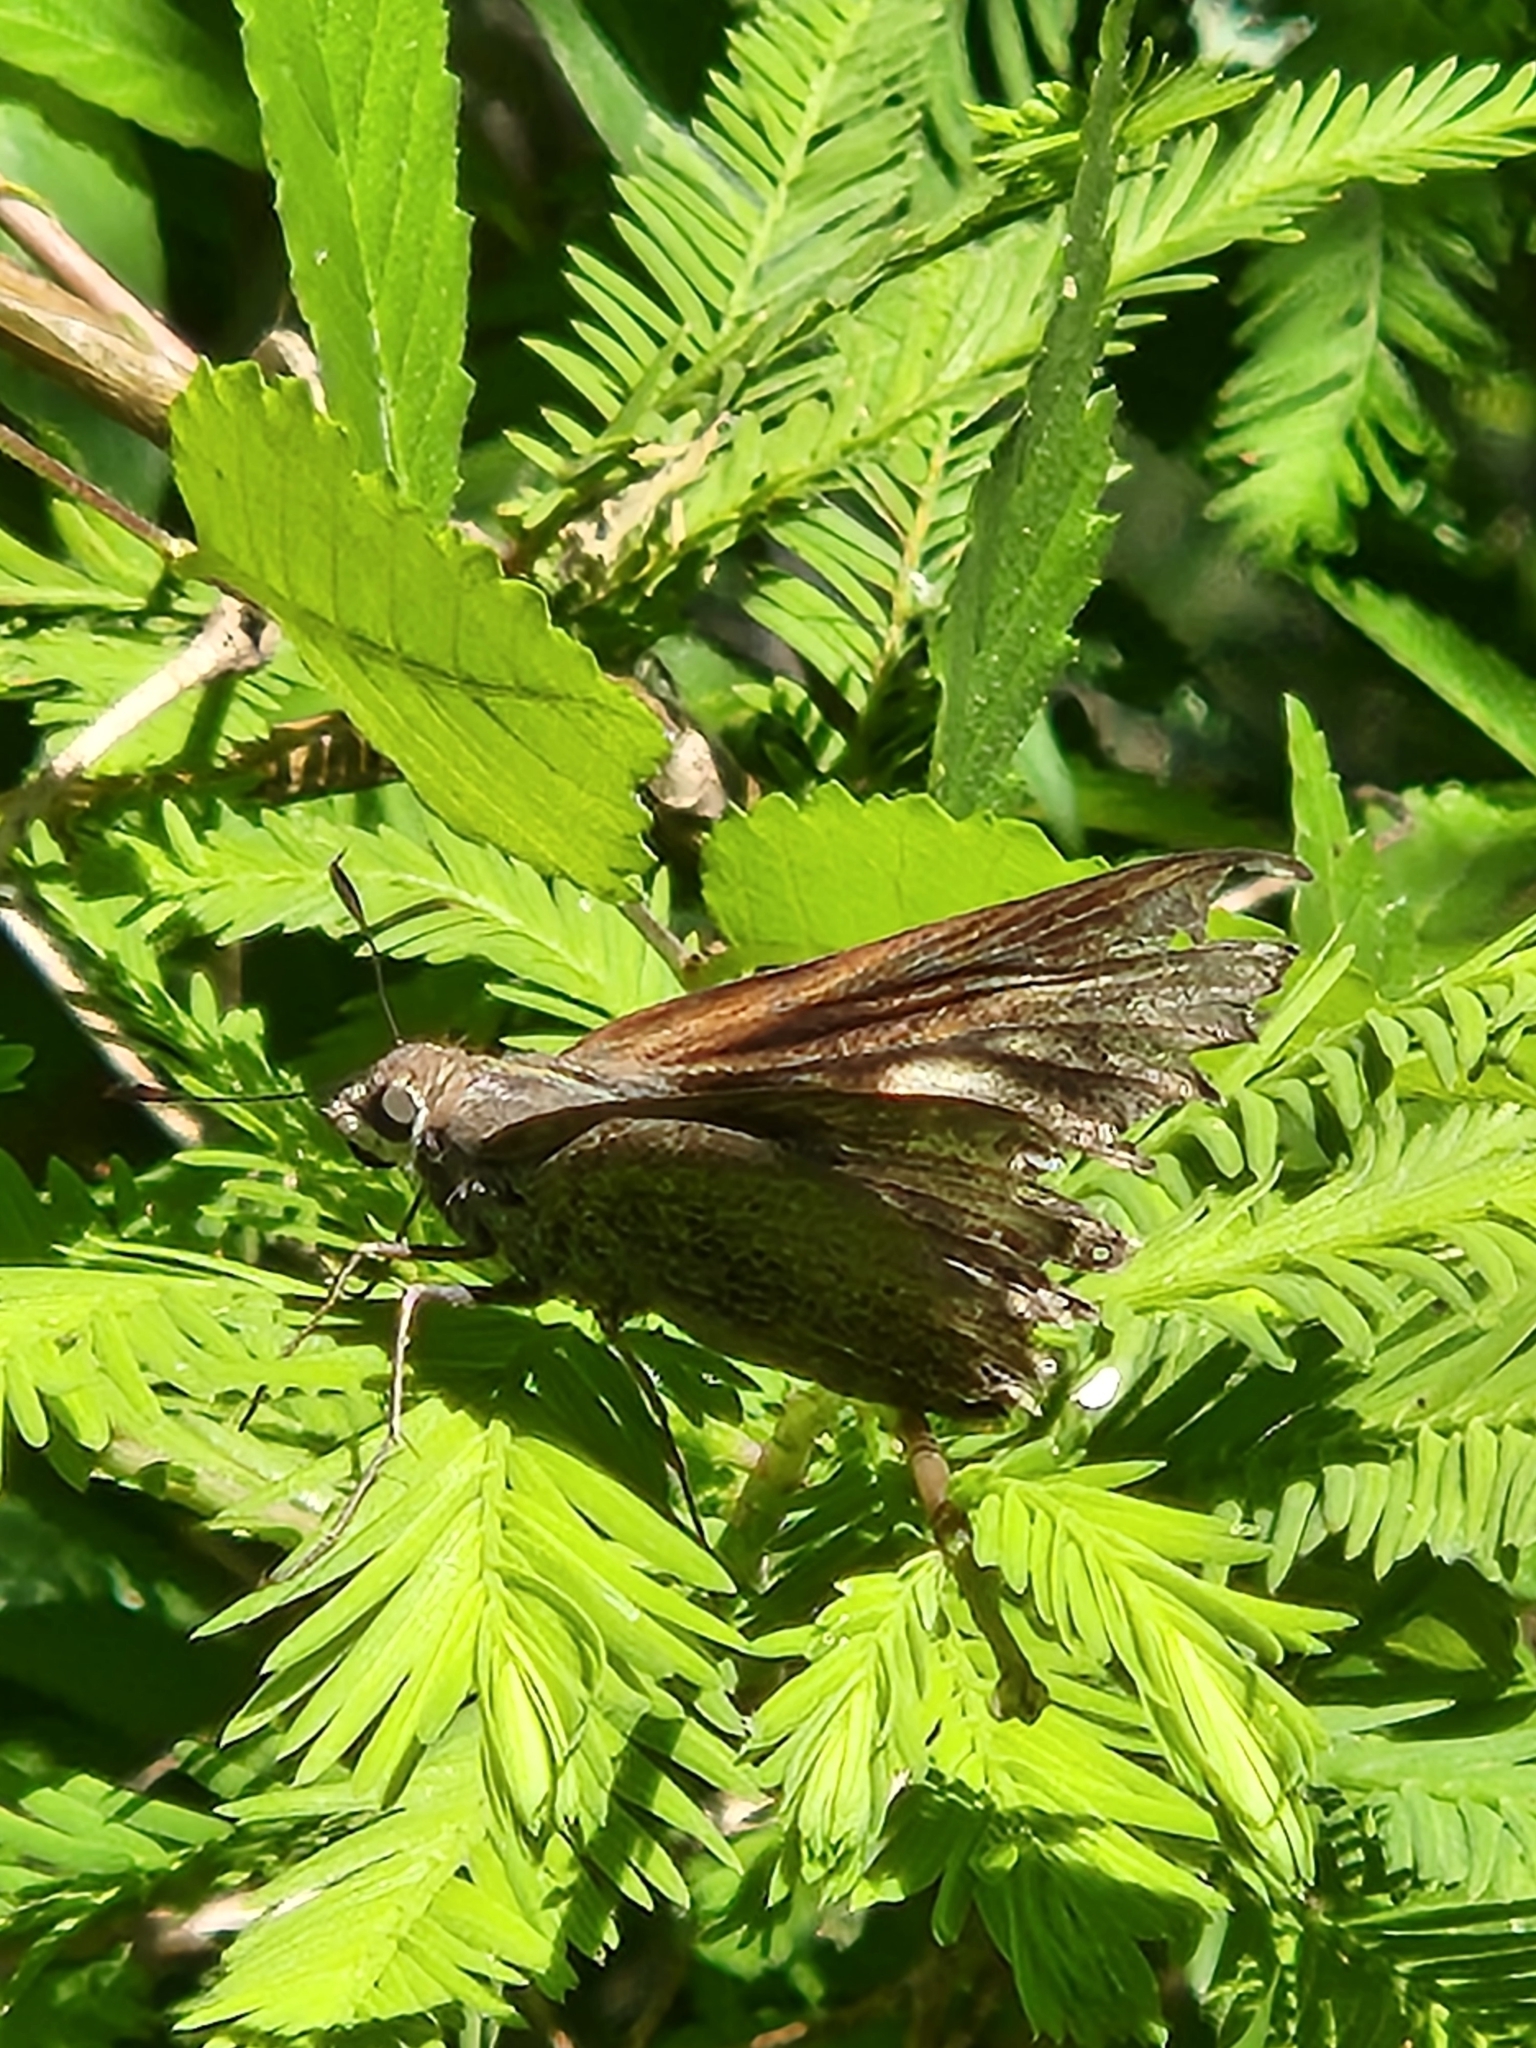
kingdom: Animalia
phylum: Arthropoda
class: Insecta
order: Lepidoptera
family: Hesperiidae
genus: Asbolis
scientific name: Asbolis capucinus
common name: Monk skipper
